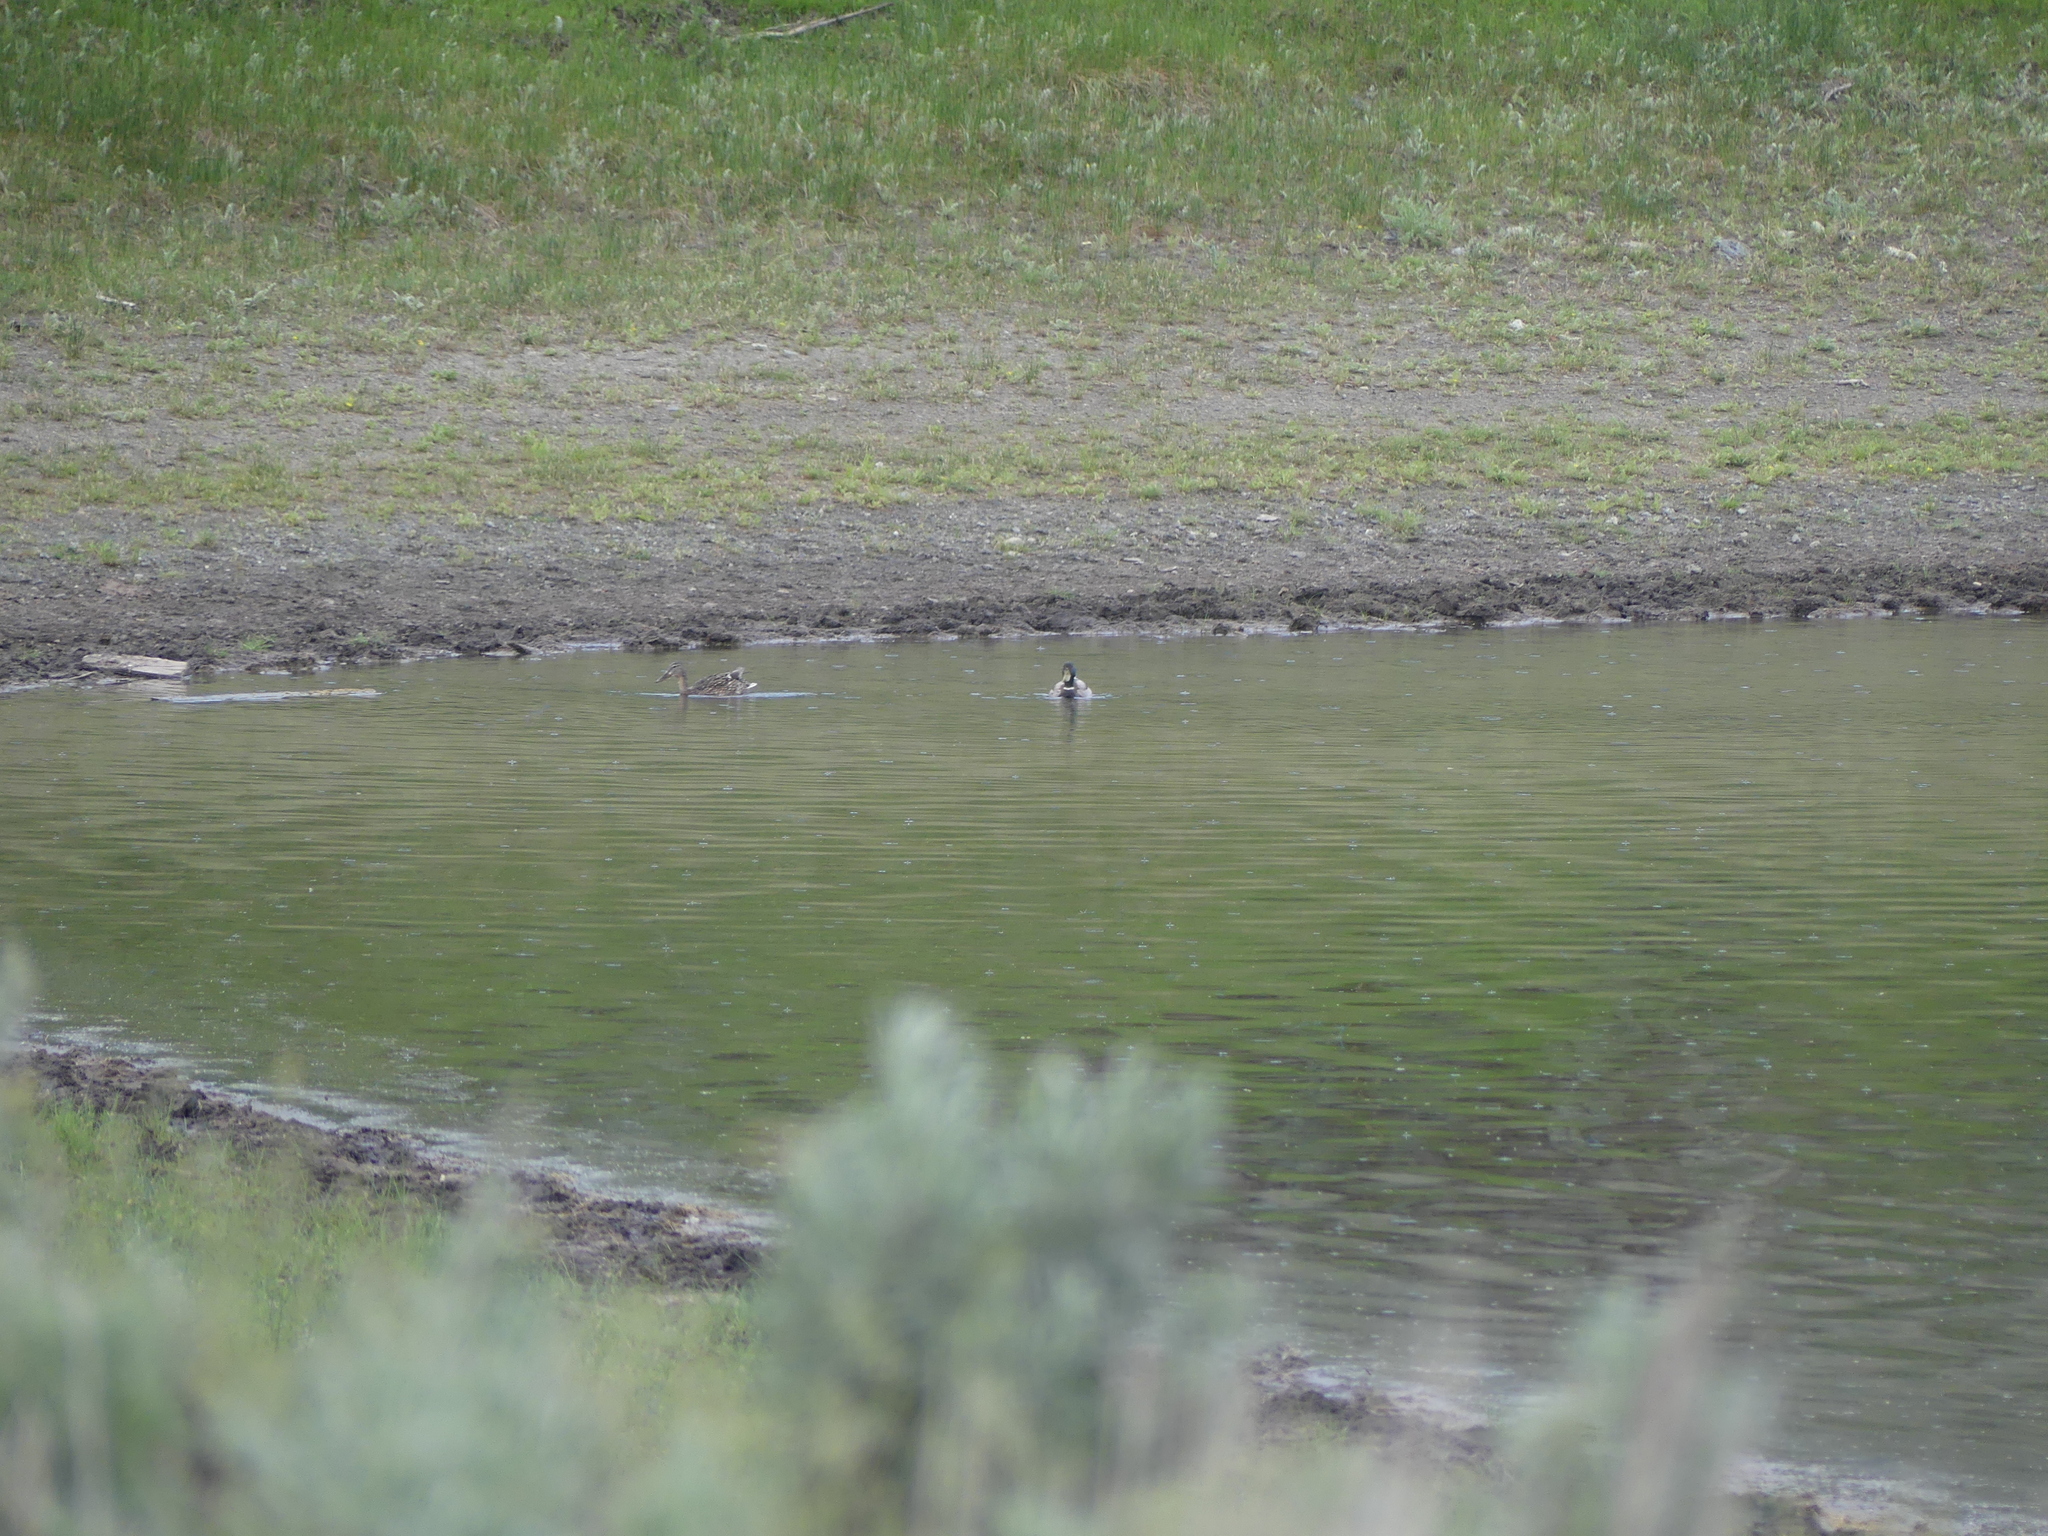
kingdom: Animalia
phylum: Chordata
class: Aves
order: Anseriformes
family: Anatidae
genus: Anas
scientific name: Anas platyrhynchos
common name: Mallard
